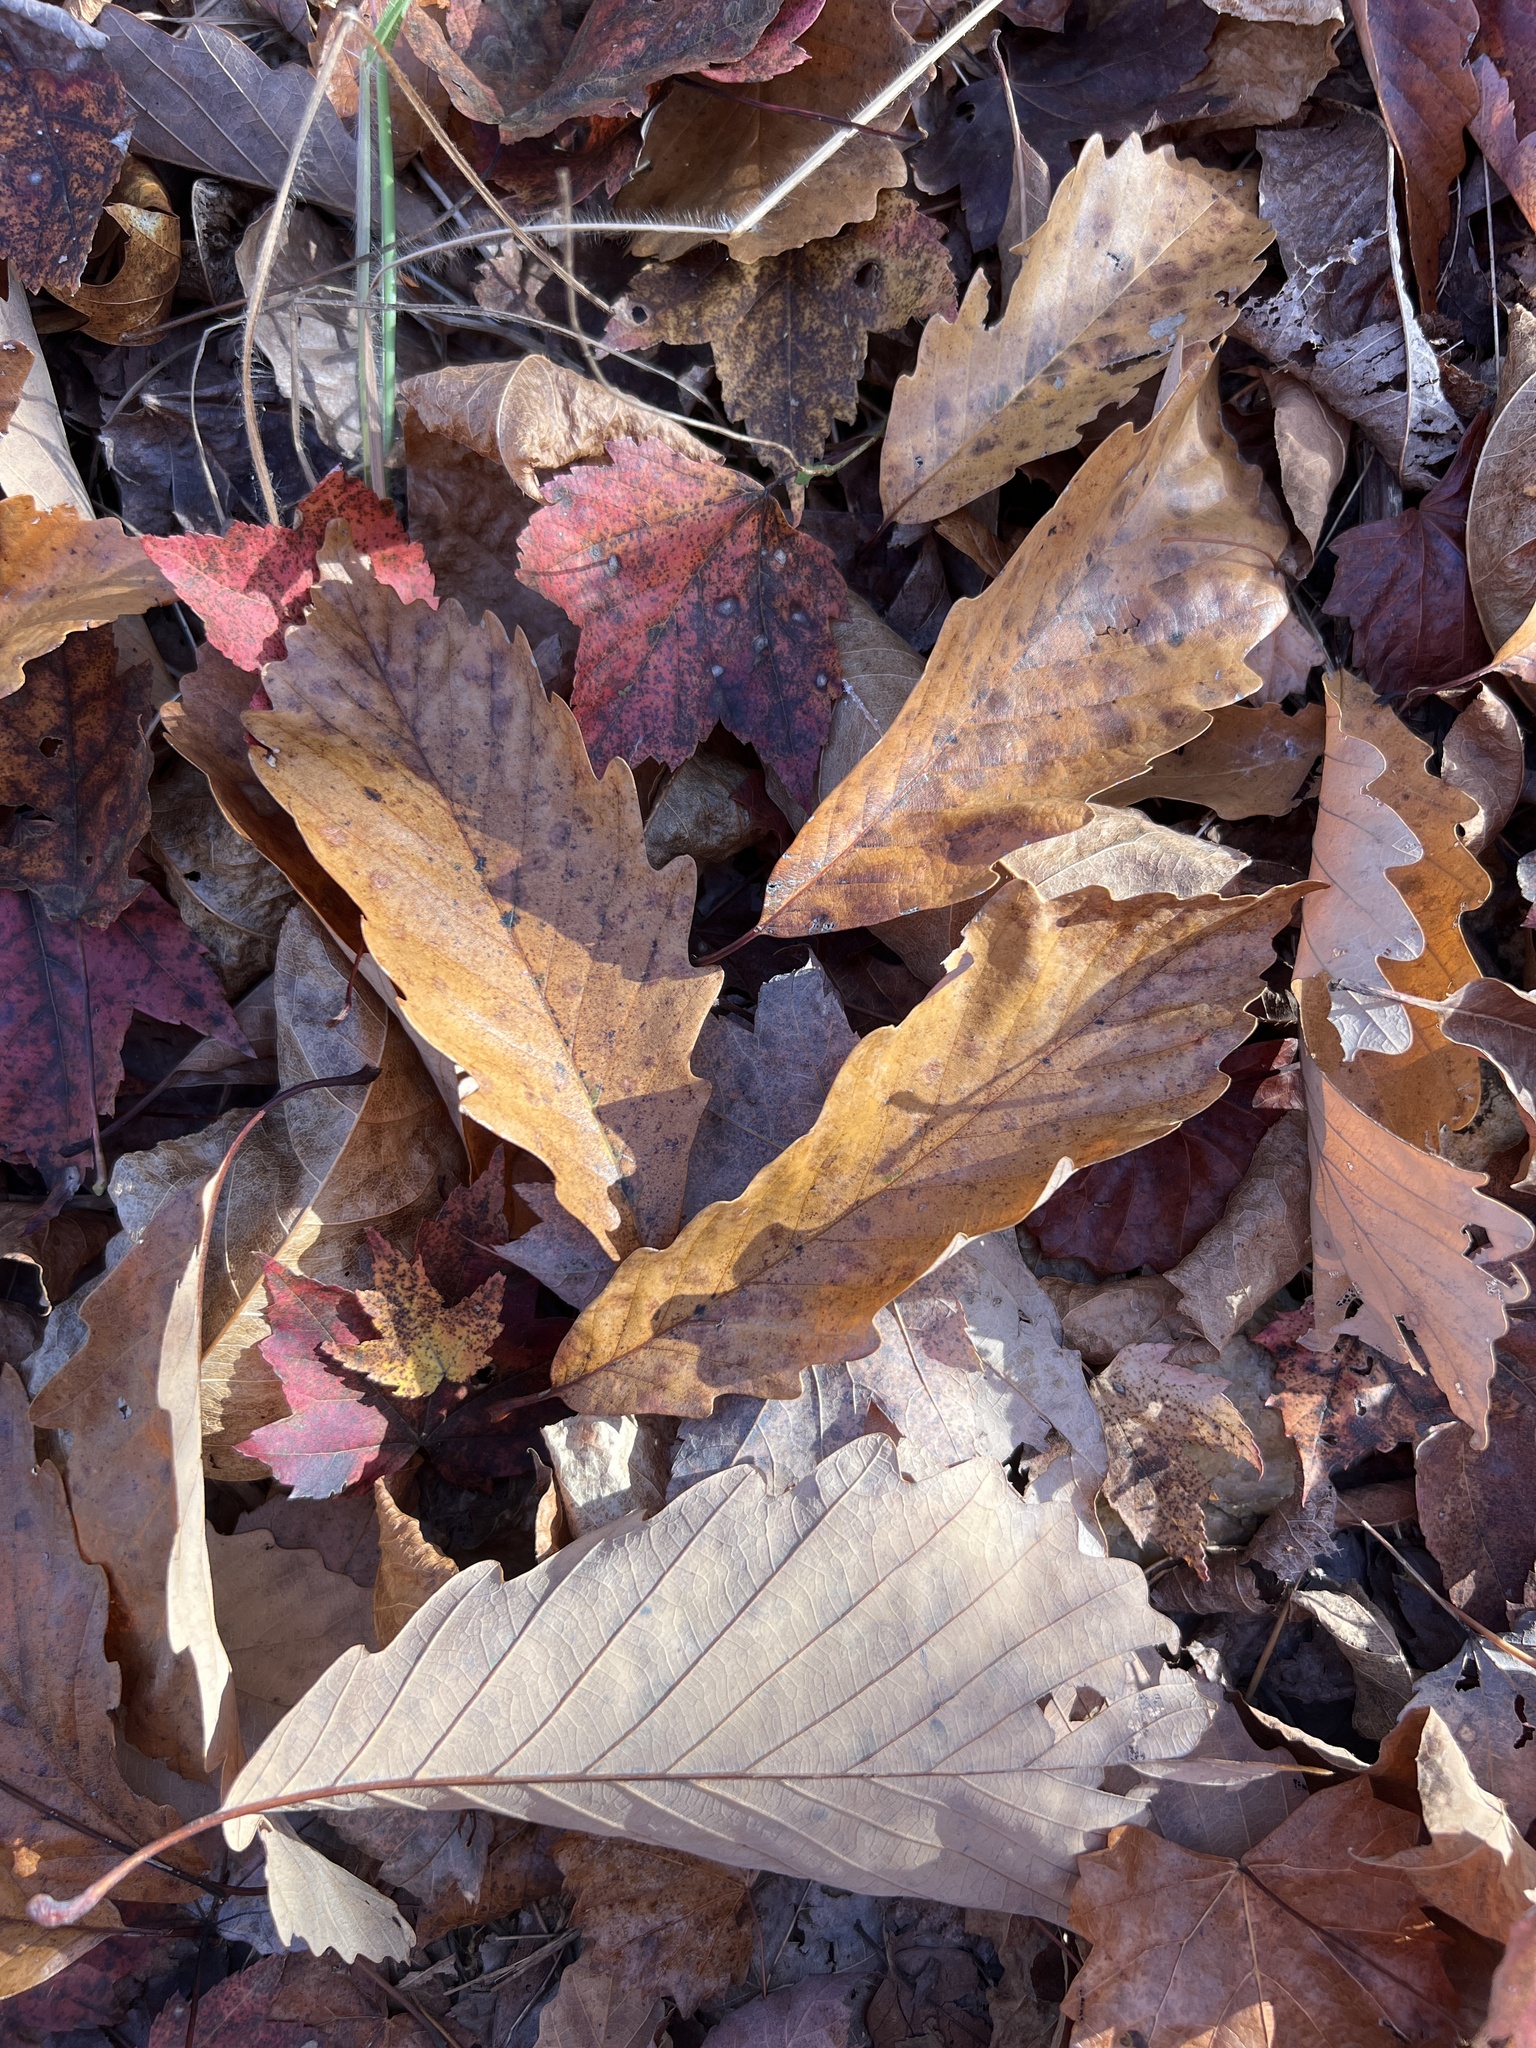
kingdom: Plantae
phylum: Tracheophyta
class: Magnoliopsida
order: Fagales
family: Fagaceae
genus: Quercus
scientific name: Quercus montana
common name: Chestnut oak
